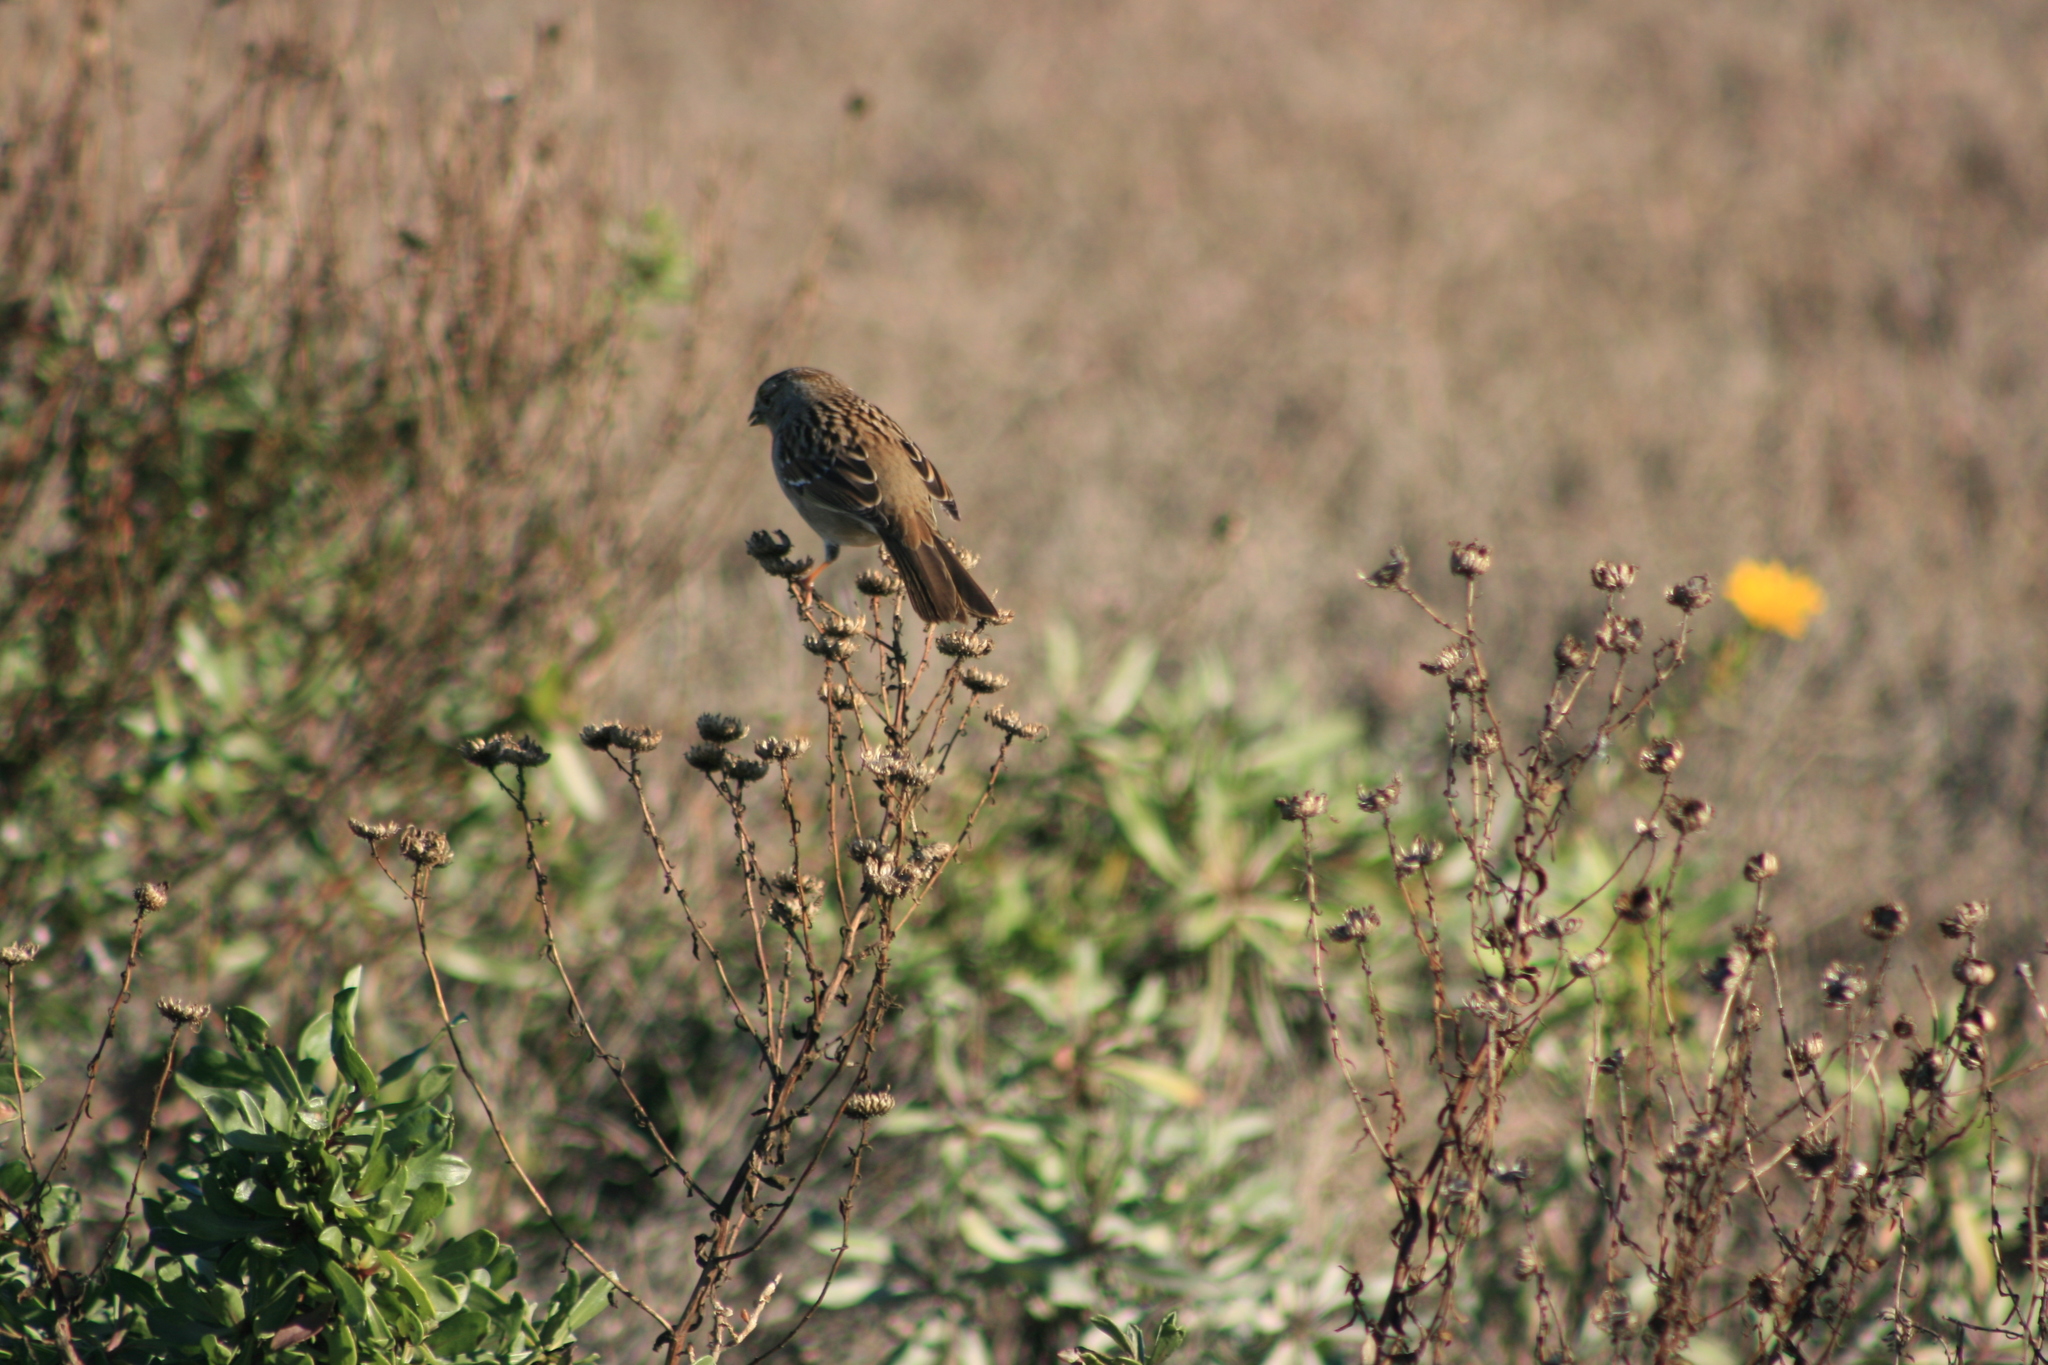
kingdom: Animalia
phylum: Chordata
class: Aves
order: Passeriformes
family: Passerellidae
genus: Zonotrichia
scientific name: Zonotrichia atricapilla
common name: Golden-crowned sparrow
